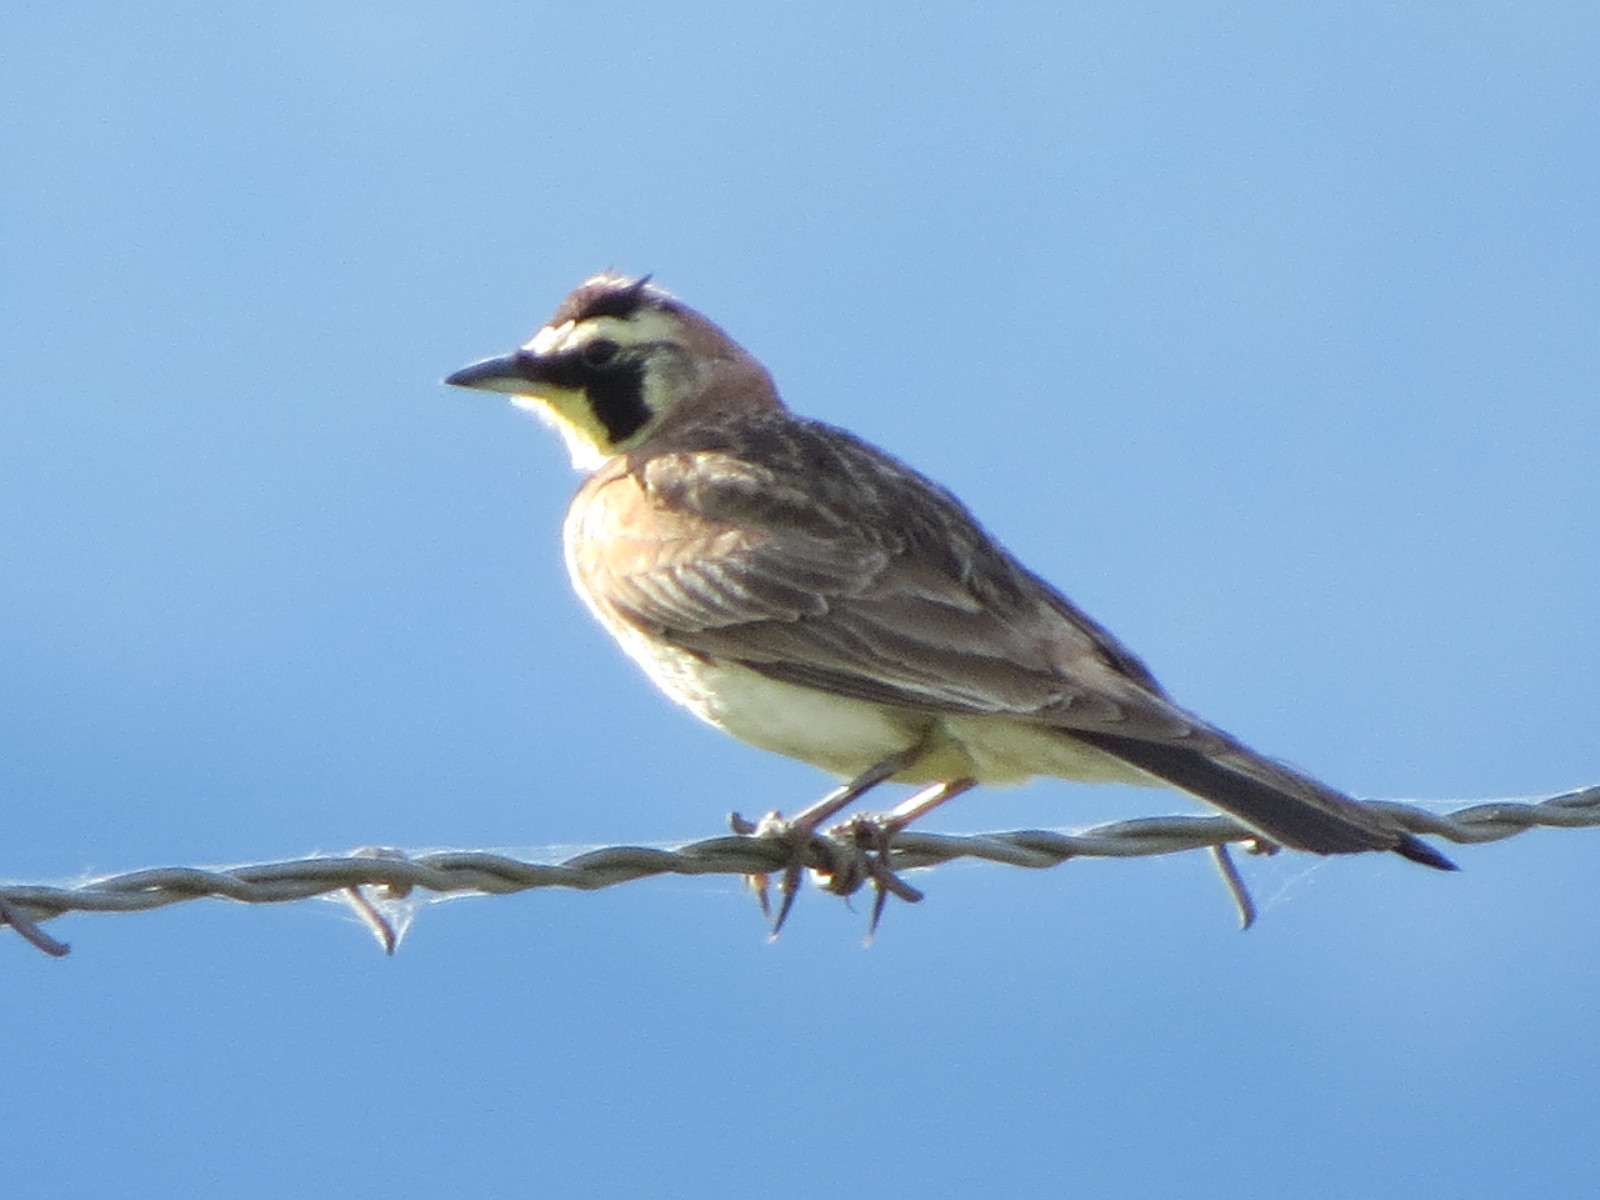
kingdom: Animalia
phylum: Chordata
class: Aves
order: Passeriformes
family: Alaudidae
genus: Eremophila
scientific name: Eremophila alpestris
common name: Horned lark
